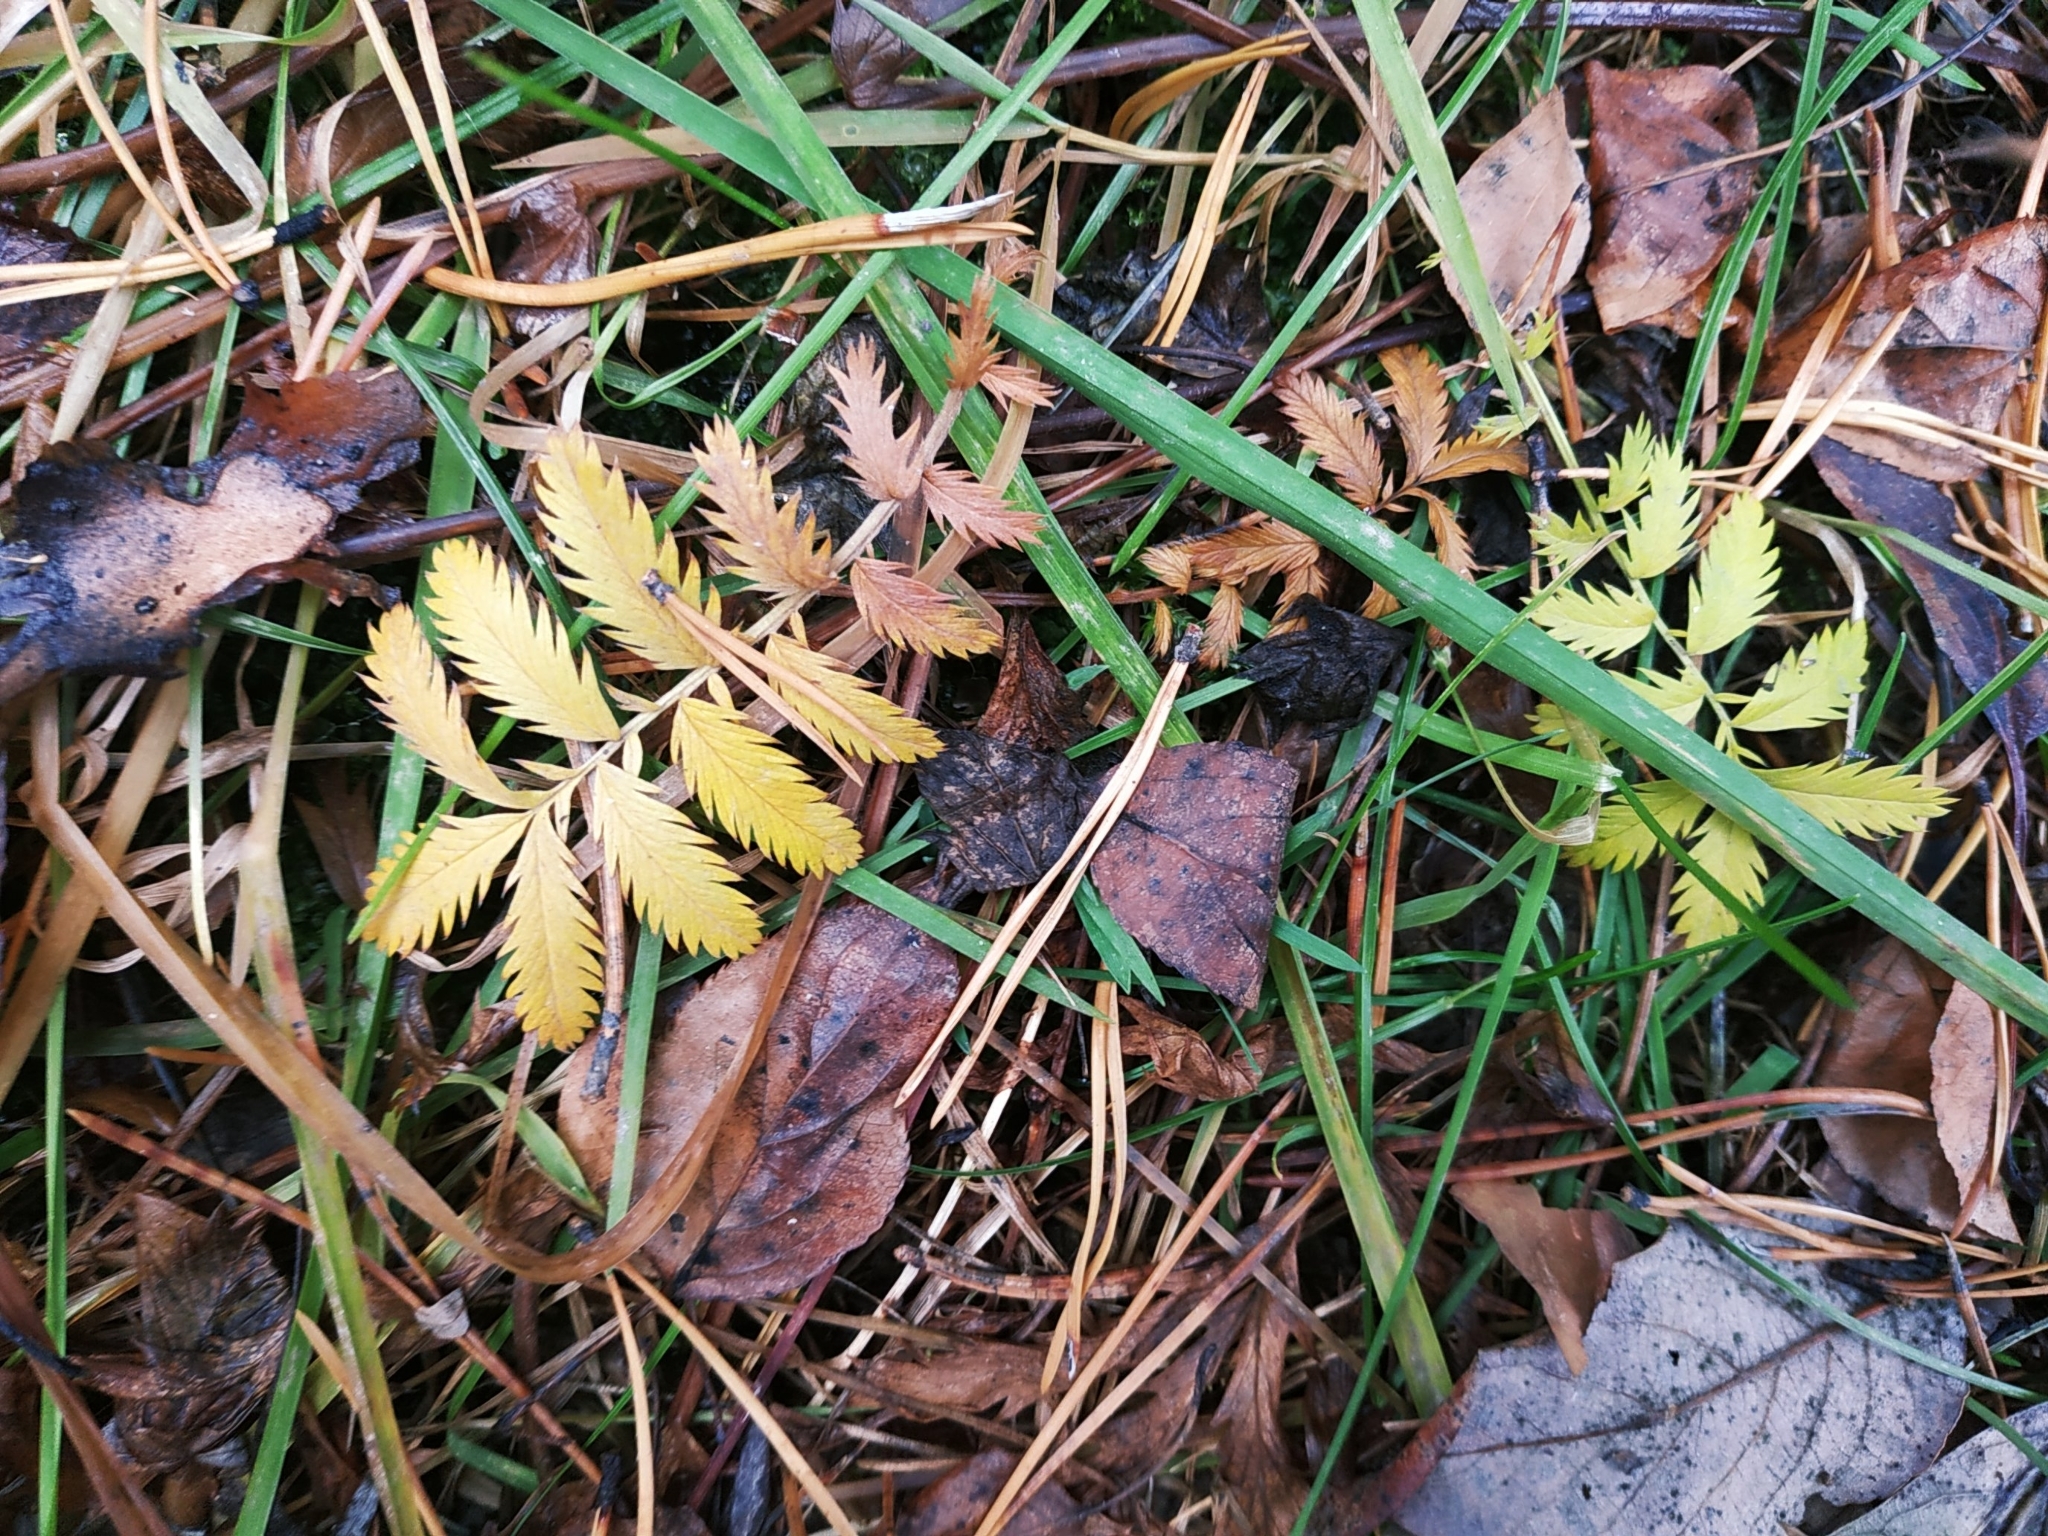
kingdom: Plantae
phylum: Tracheophyta
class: Magnoliopsida
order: Rosales
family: Rosaceae
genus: Argentina
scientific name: Argentina anserina
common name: Common silverweed
